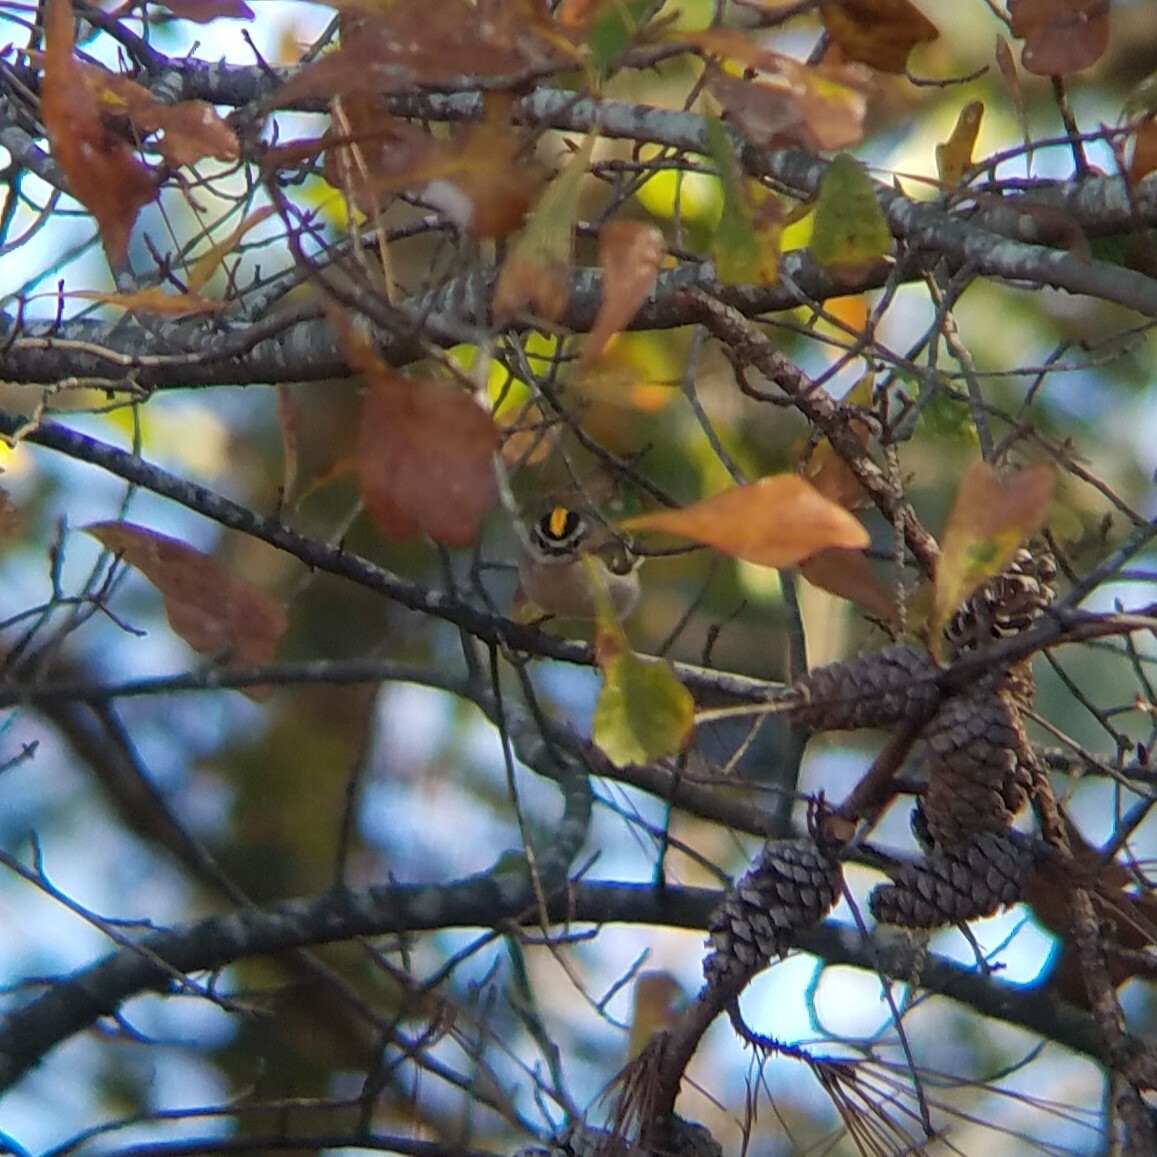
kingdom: Animalia
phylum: Chordata
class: Aves
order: Passeriformes
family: Regulidae
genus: Regulus
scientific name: Regulus satrapa
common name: Golden-crowned kinglet
